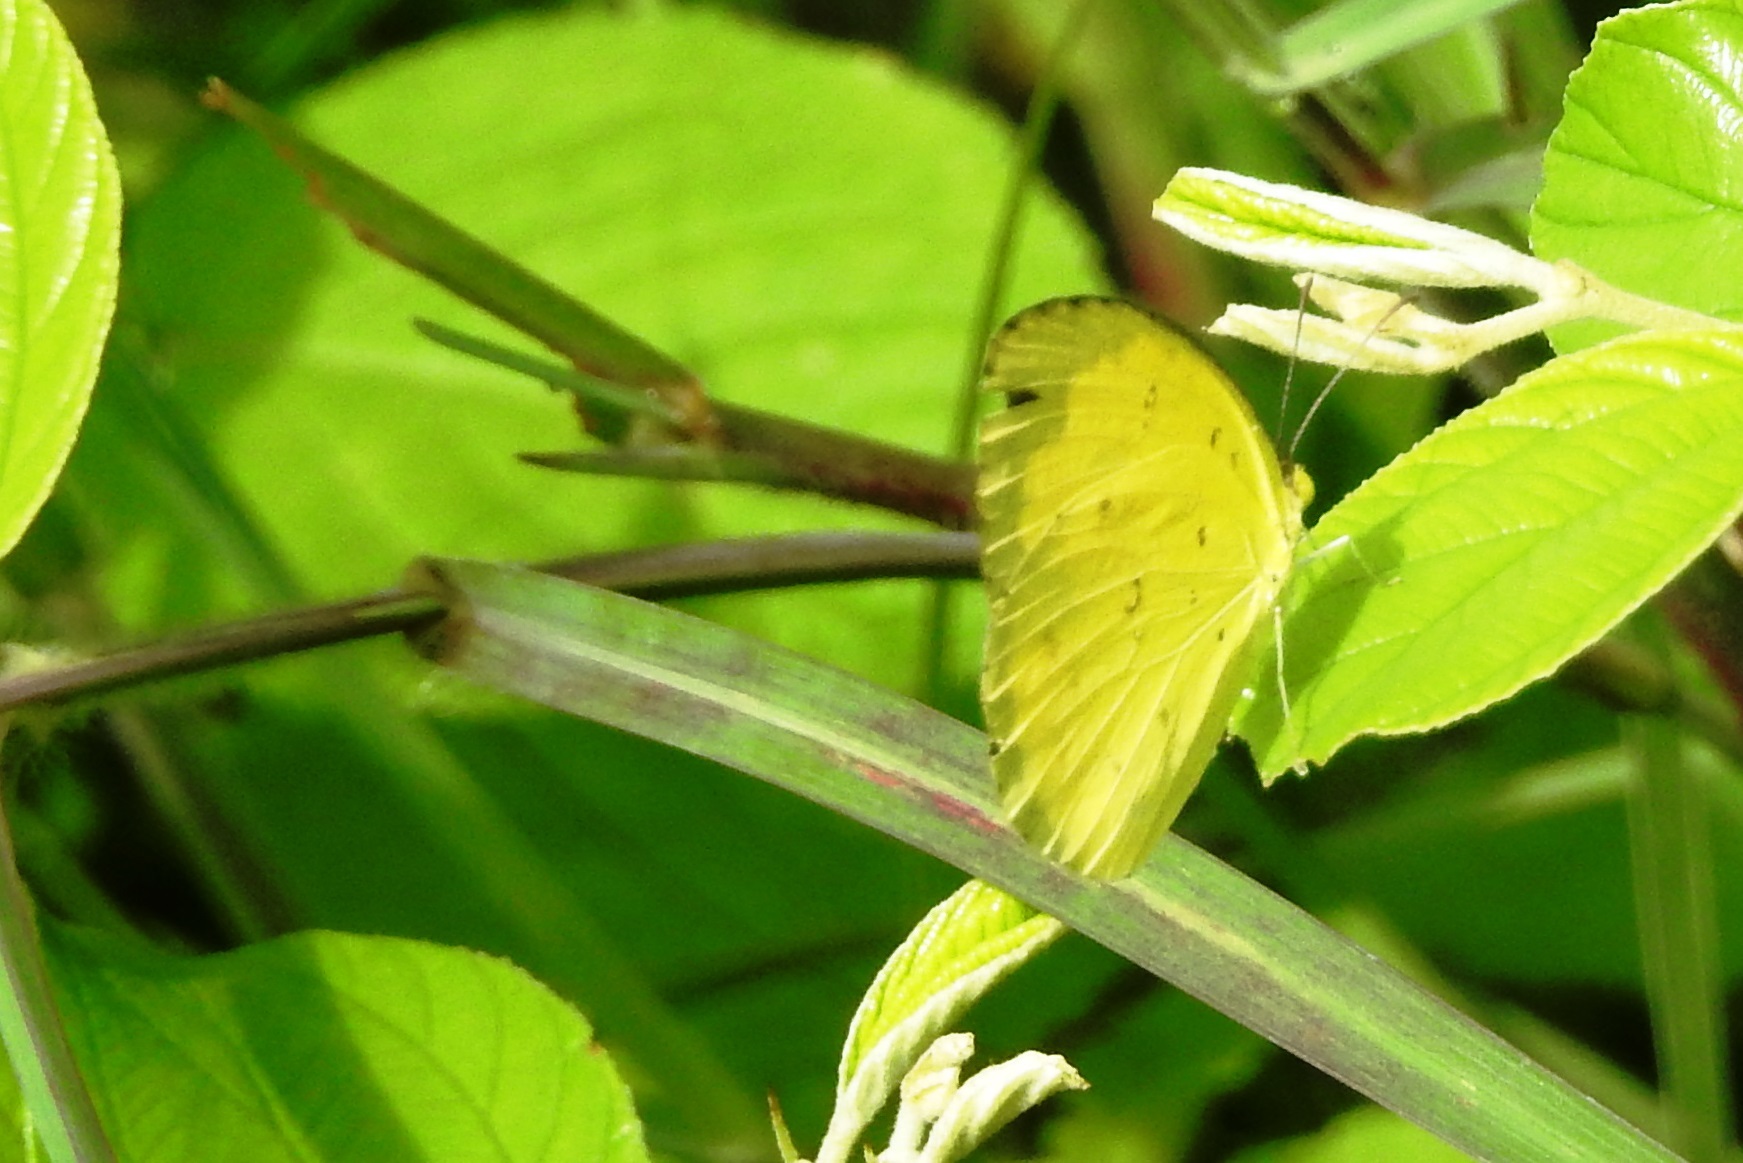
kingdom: Animalia
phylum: Arthropoda
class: Insecta
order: Lepidoptera
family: Pieridae
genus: Eurema
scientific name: Eurema hecabe
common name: Pale grass yellow
